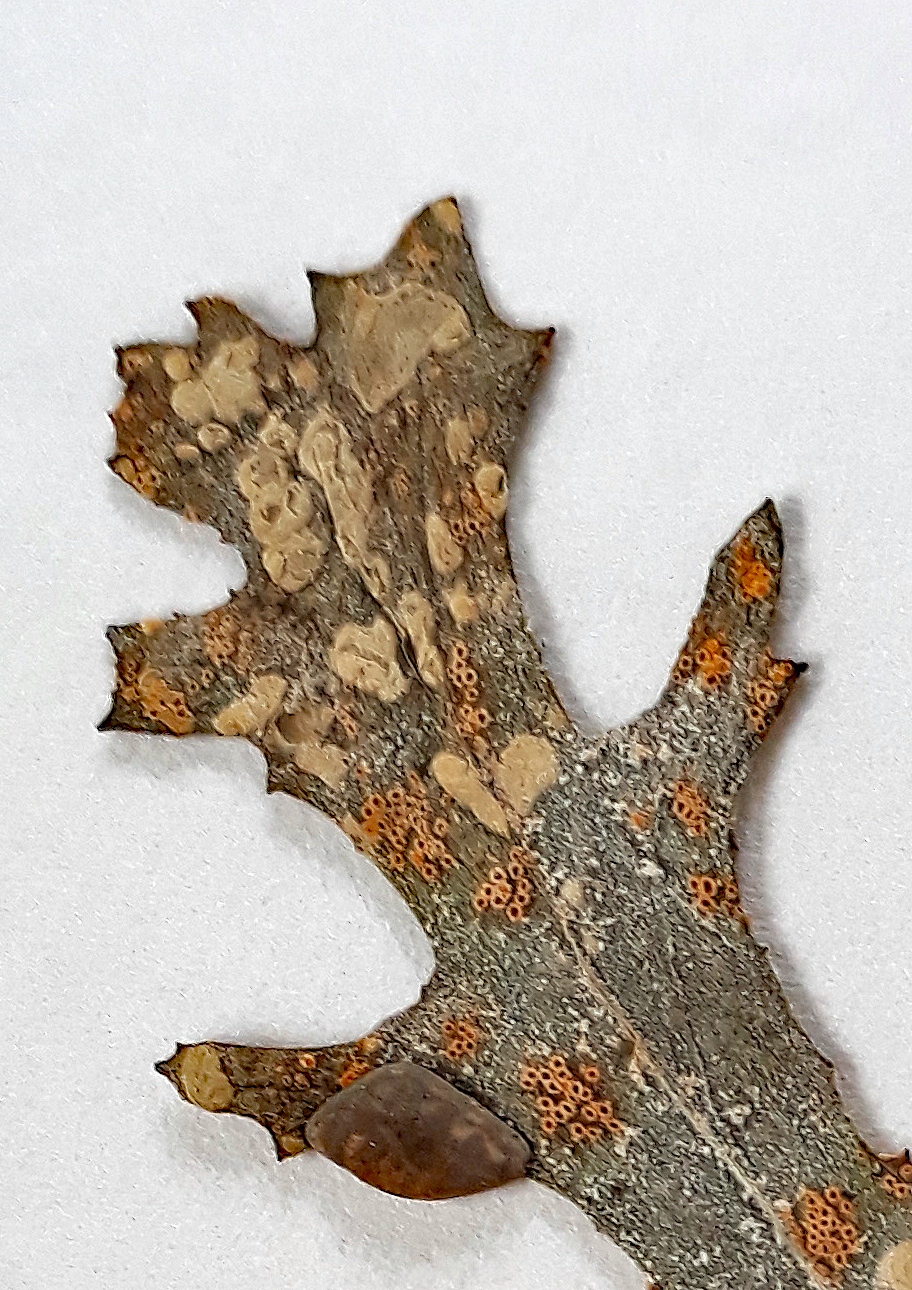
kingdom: Chromista
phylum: Oomycota
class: Peronosporea
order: Albuginales
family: Albuginaceae
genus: Pustula
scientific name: Pustula
